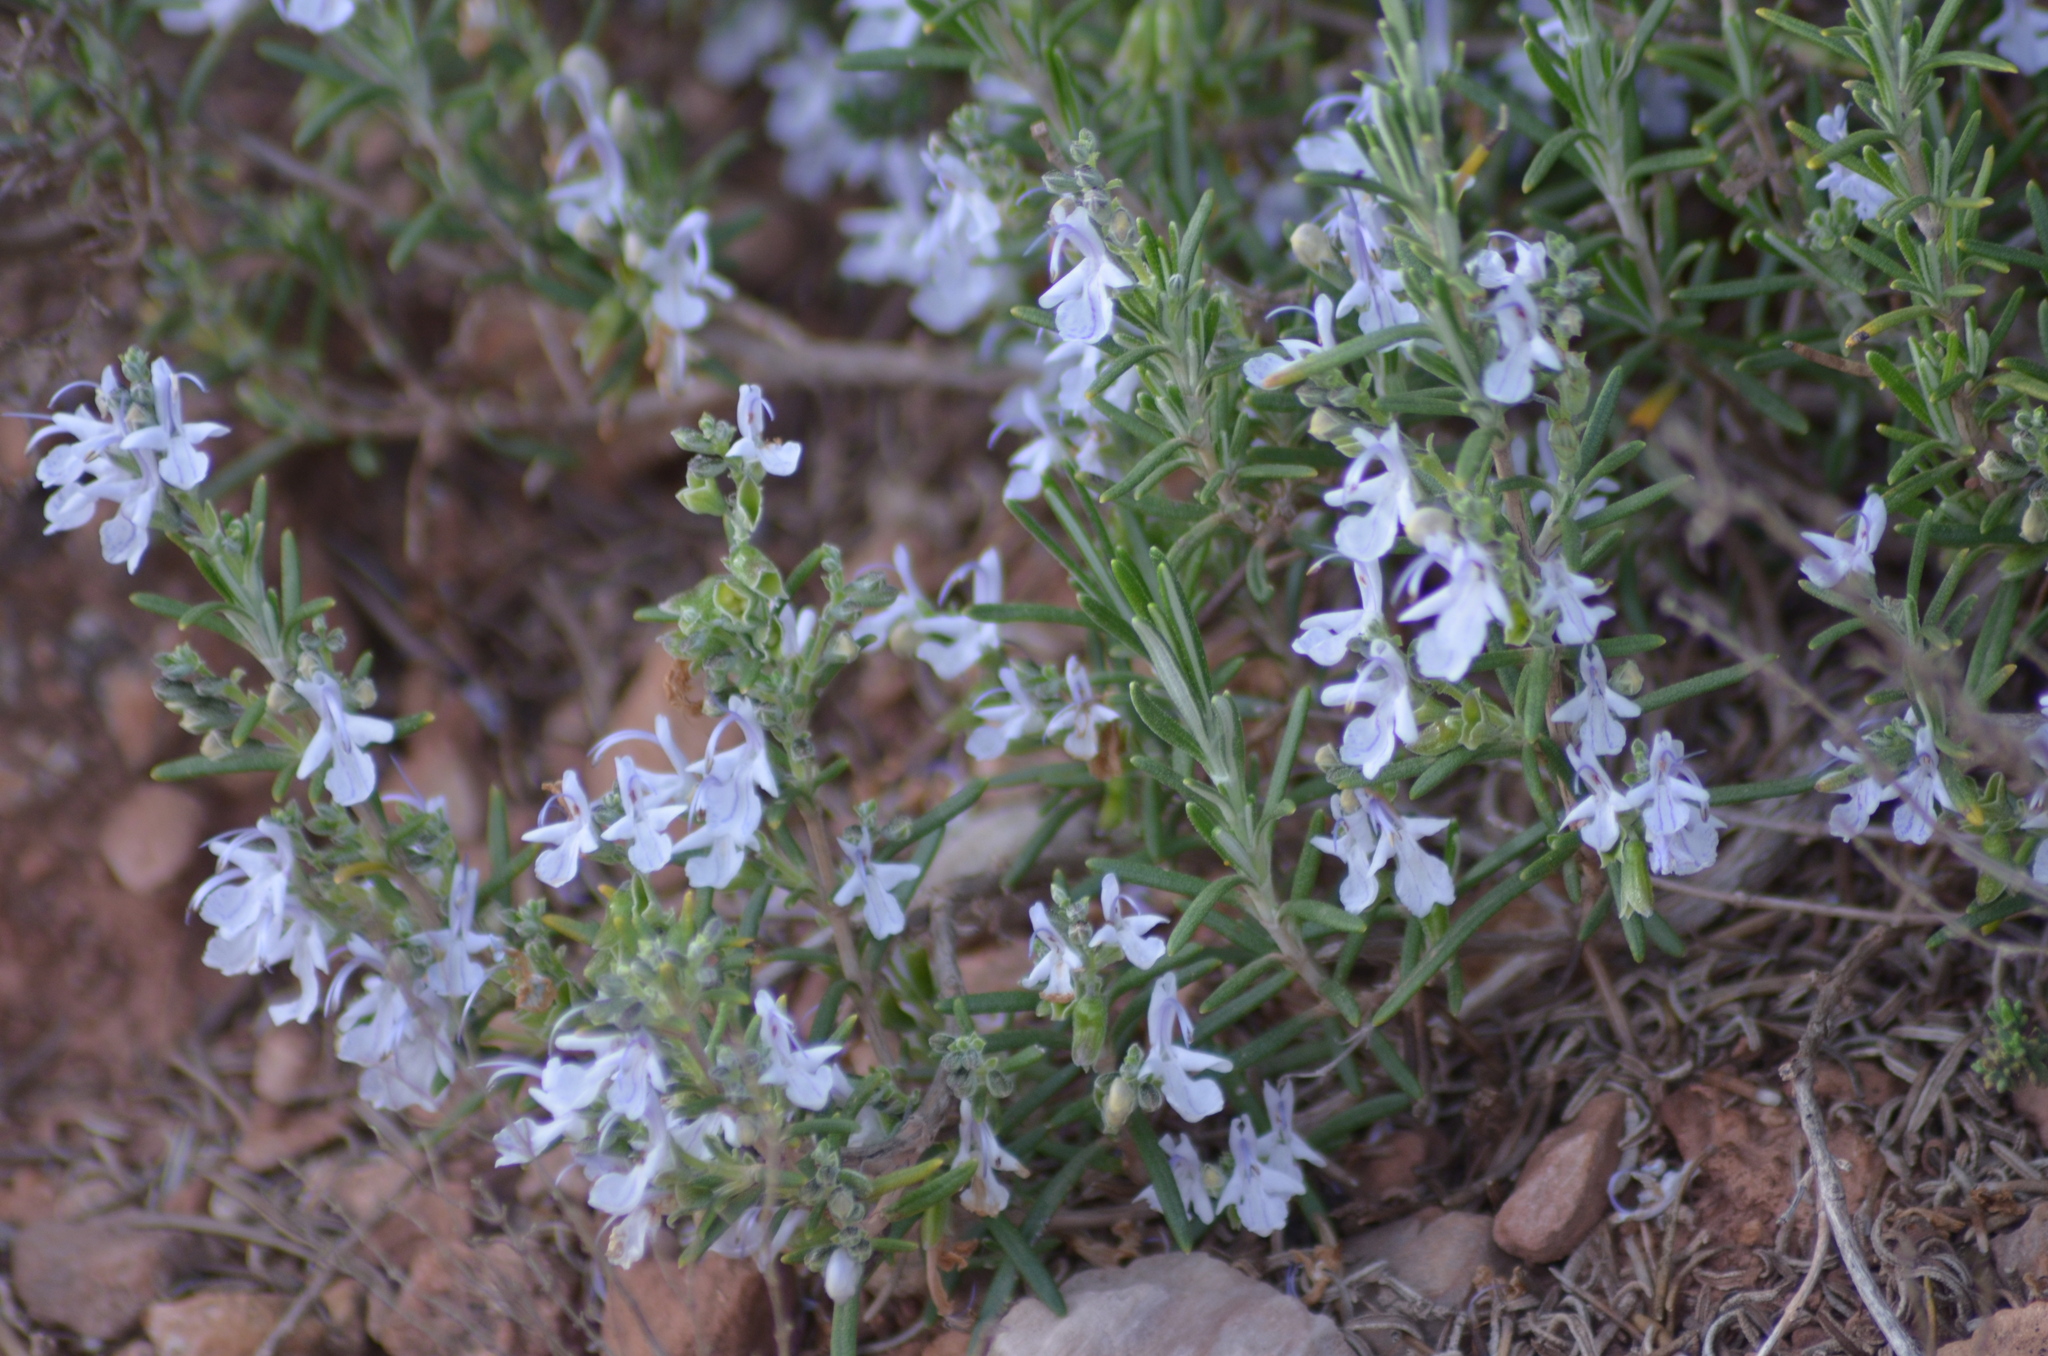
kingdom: Plantae
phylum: Tracheophyta
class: Magnoliopsida
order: Lamiales
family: Lamiaceae
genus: Salvia
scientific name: Salvia rosmarinus
